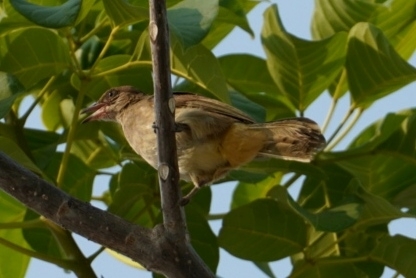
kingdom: Animalia
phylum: Chordata
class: Aves
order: Passeriformes
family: Pycnonotidae
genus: Pycnonotus
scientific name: Pycnonotus blanfordi
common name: Streak-eared bulbul
